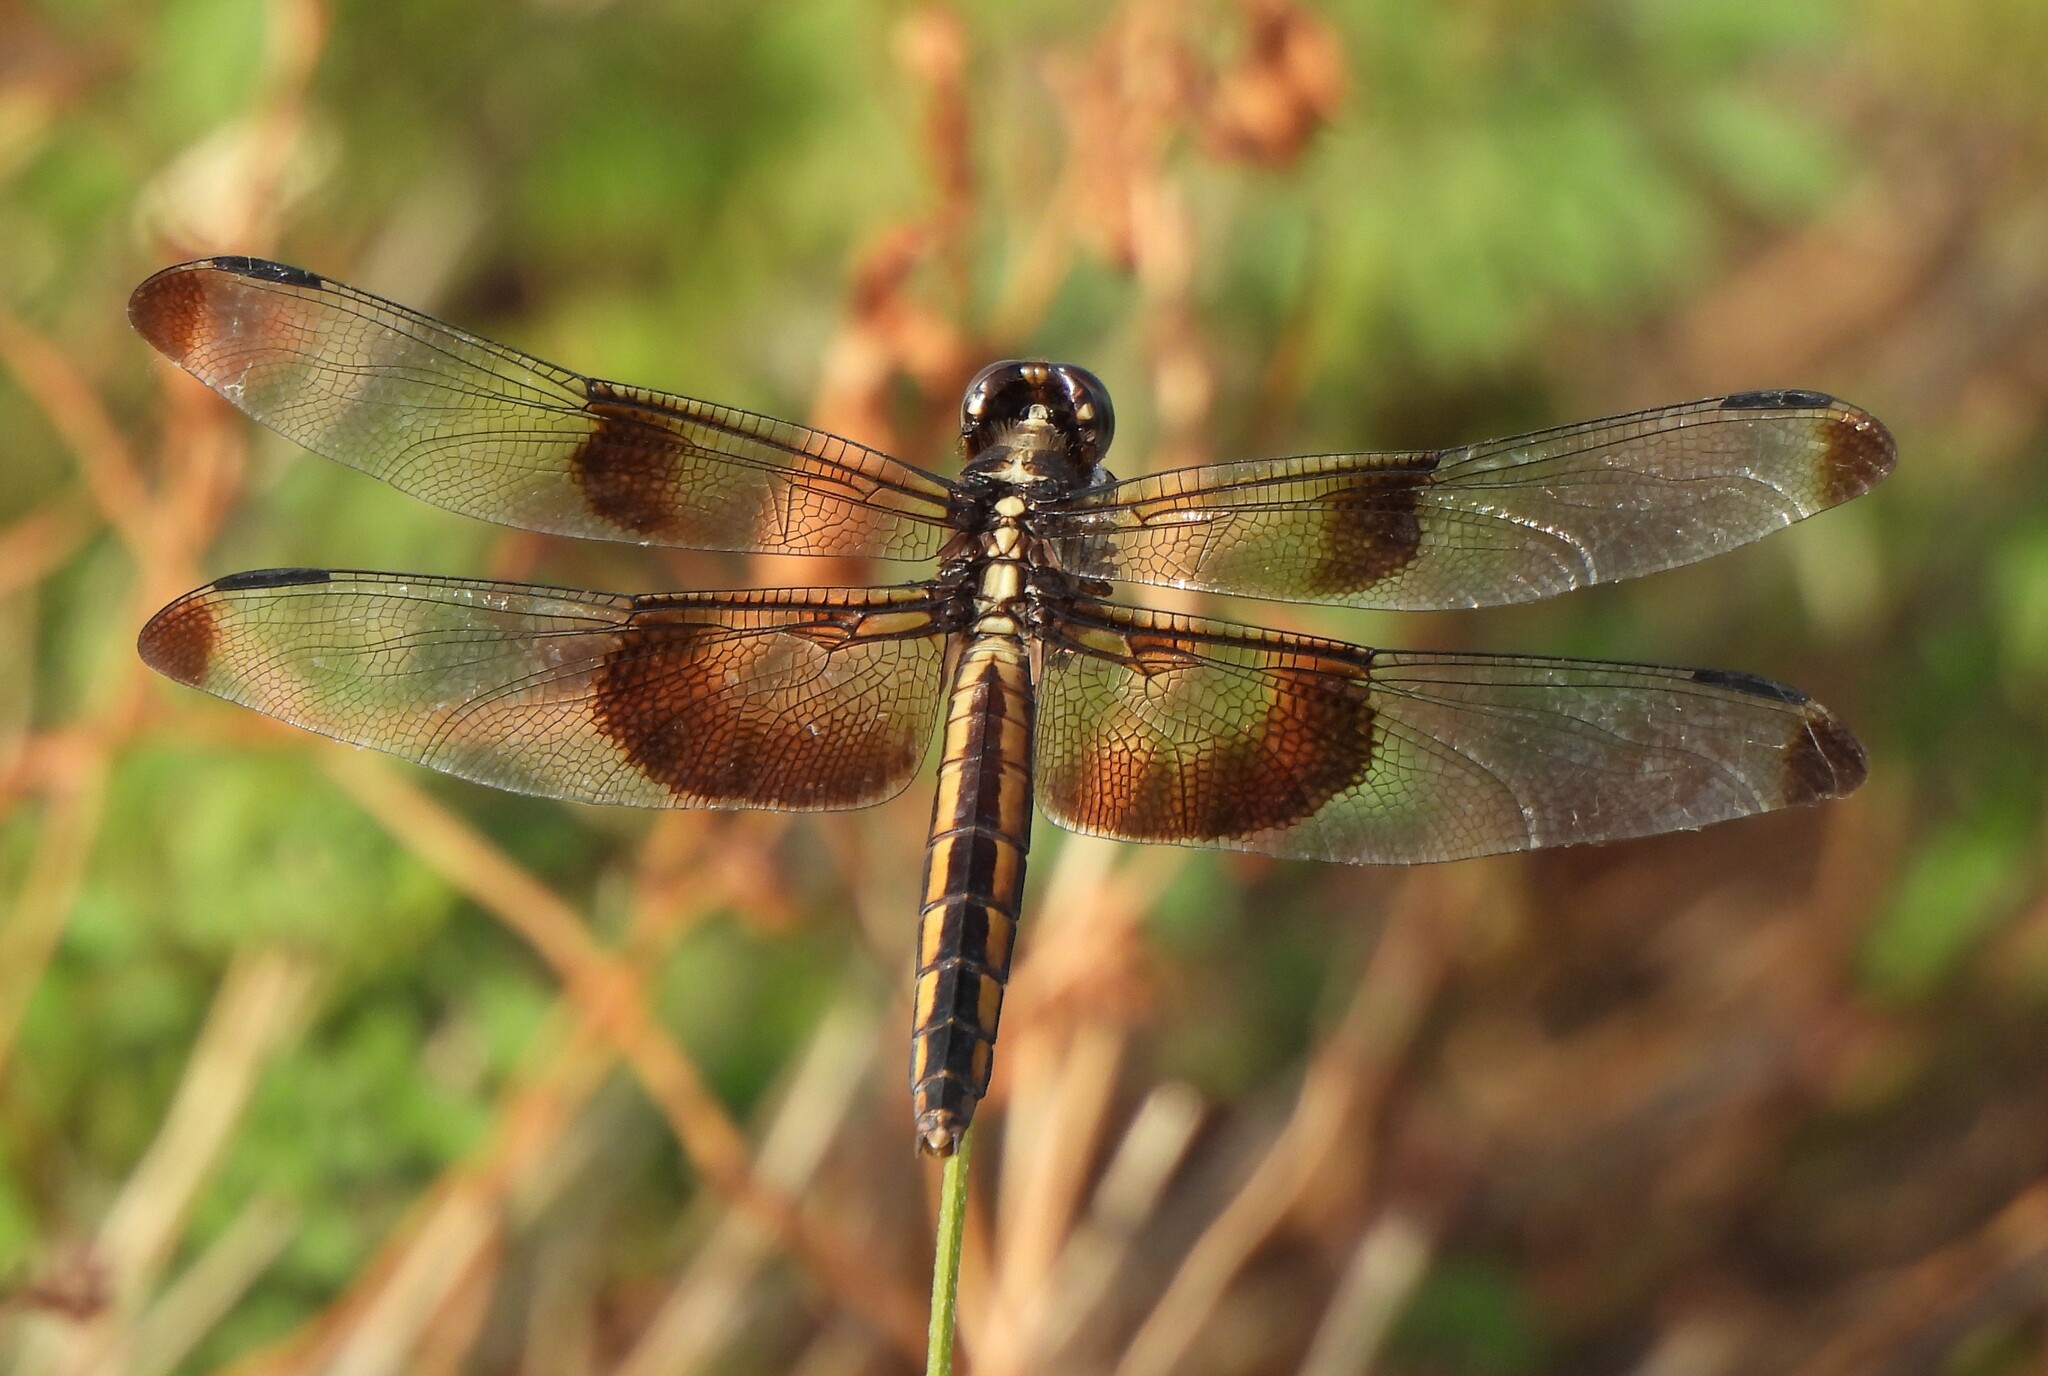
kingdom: Animalia
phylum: Arthropoda
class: Insecta
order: Odonata
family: Libellulidae
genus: Libellula
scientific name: Libellula luctuosa
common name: Widow skimmer
